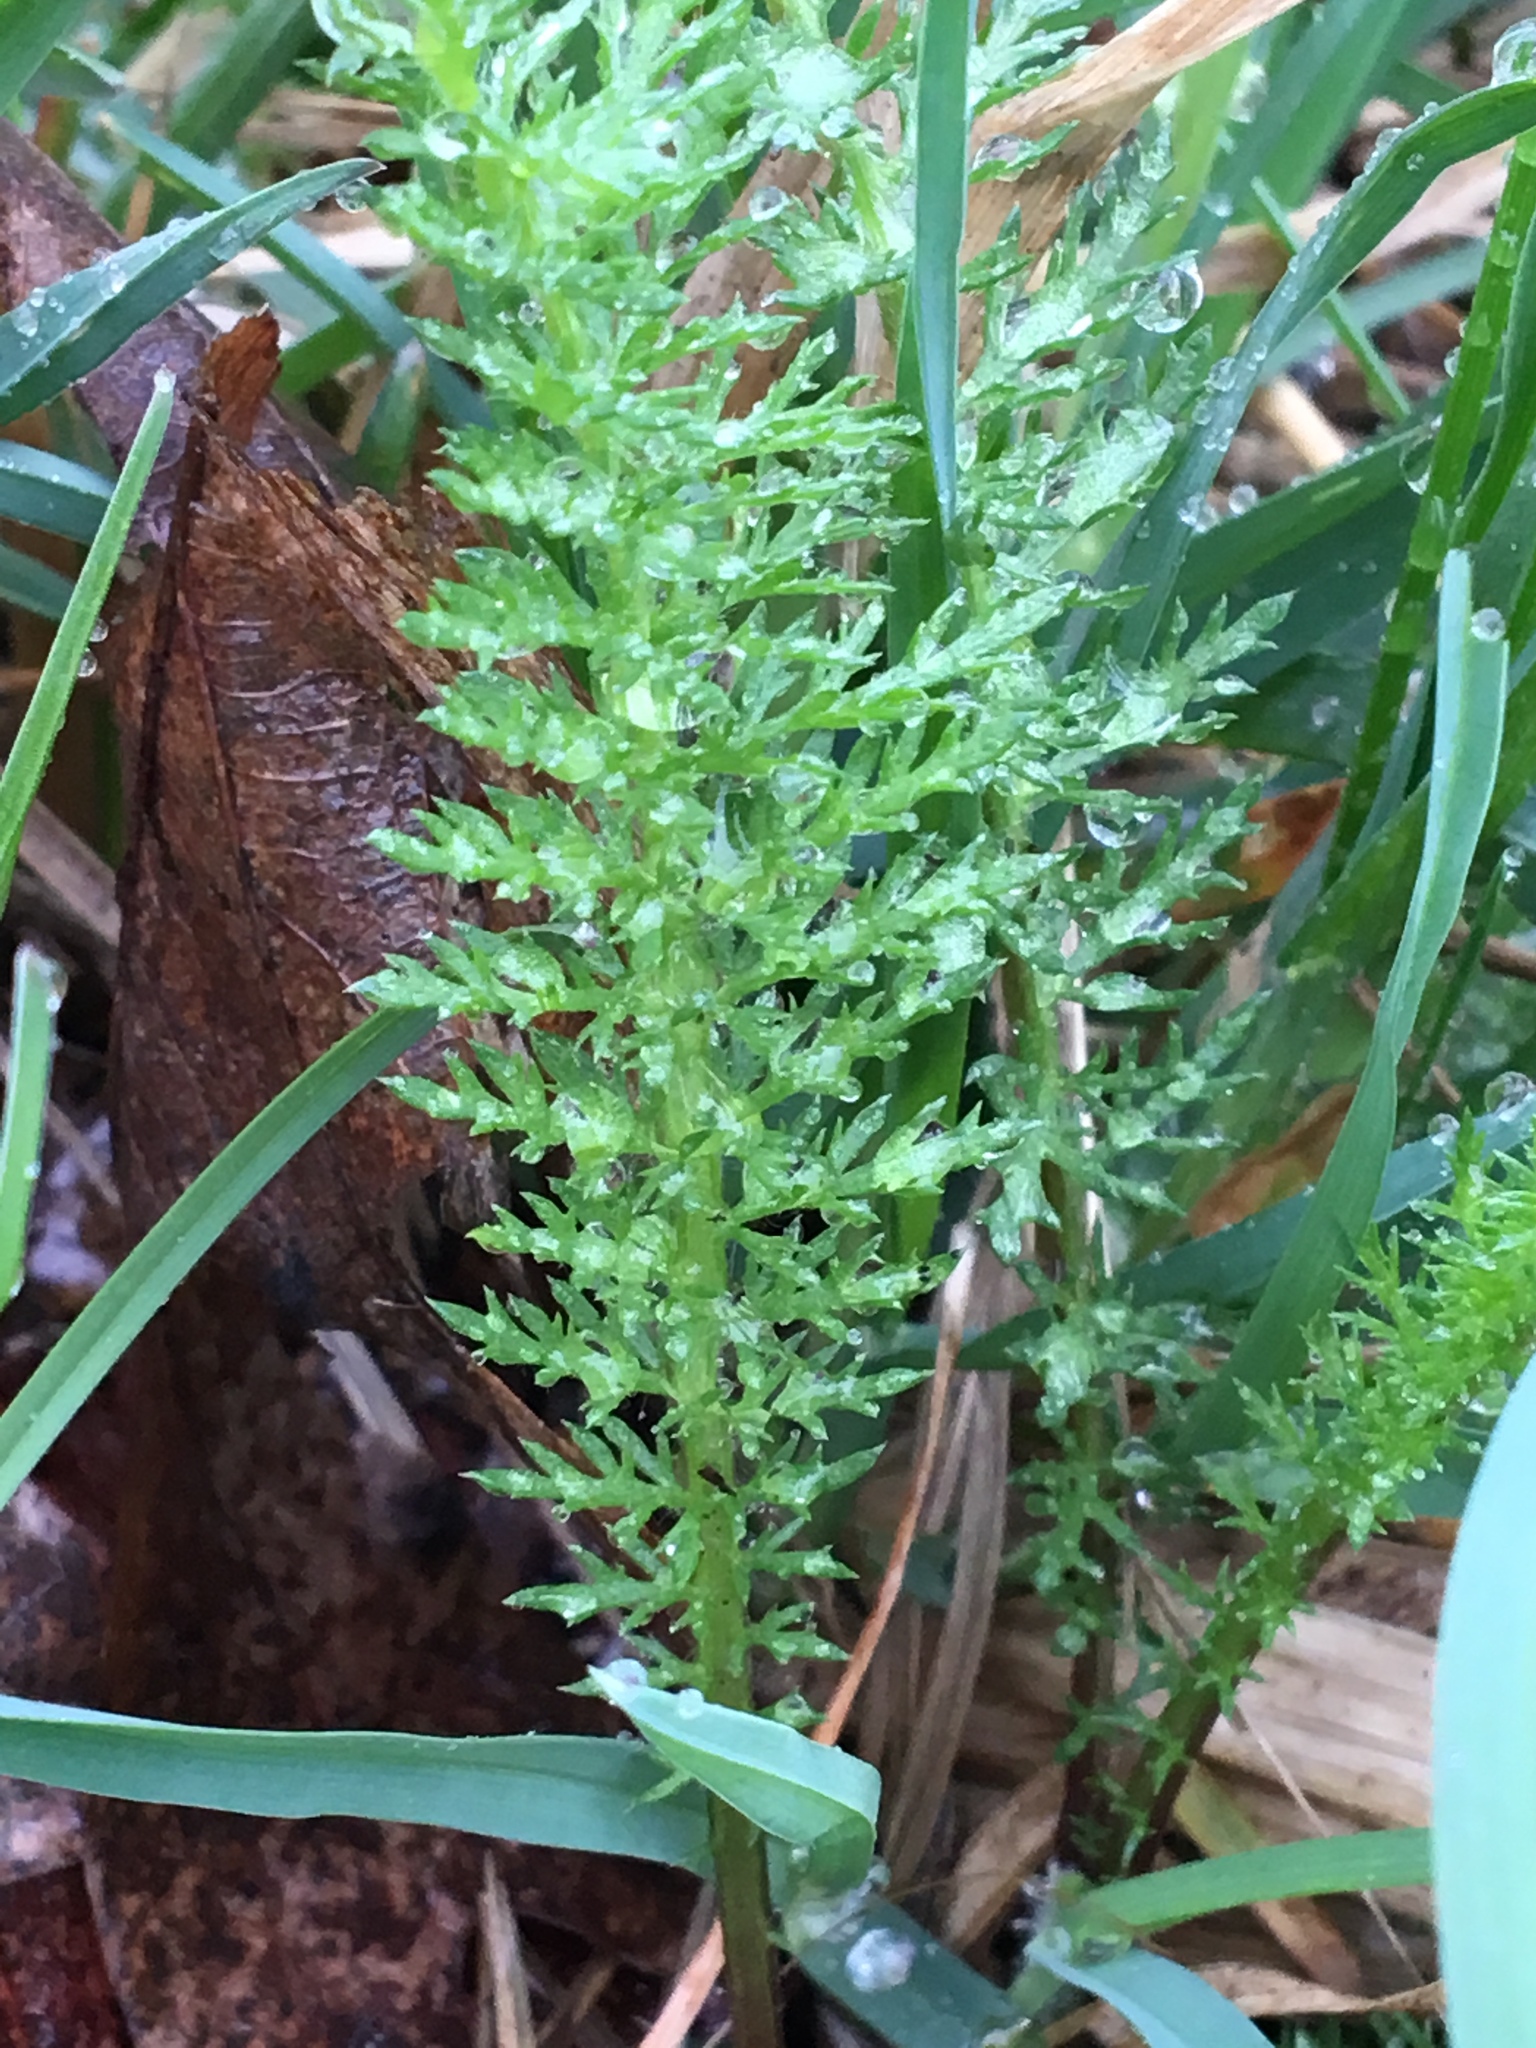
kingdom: Plantae
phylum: Tracheophyta
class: Magnoliopsida
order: Asterales
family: Asteraceae
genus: Achillea
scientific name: Achillea millefolium
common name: Yarrow
